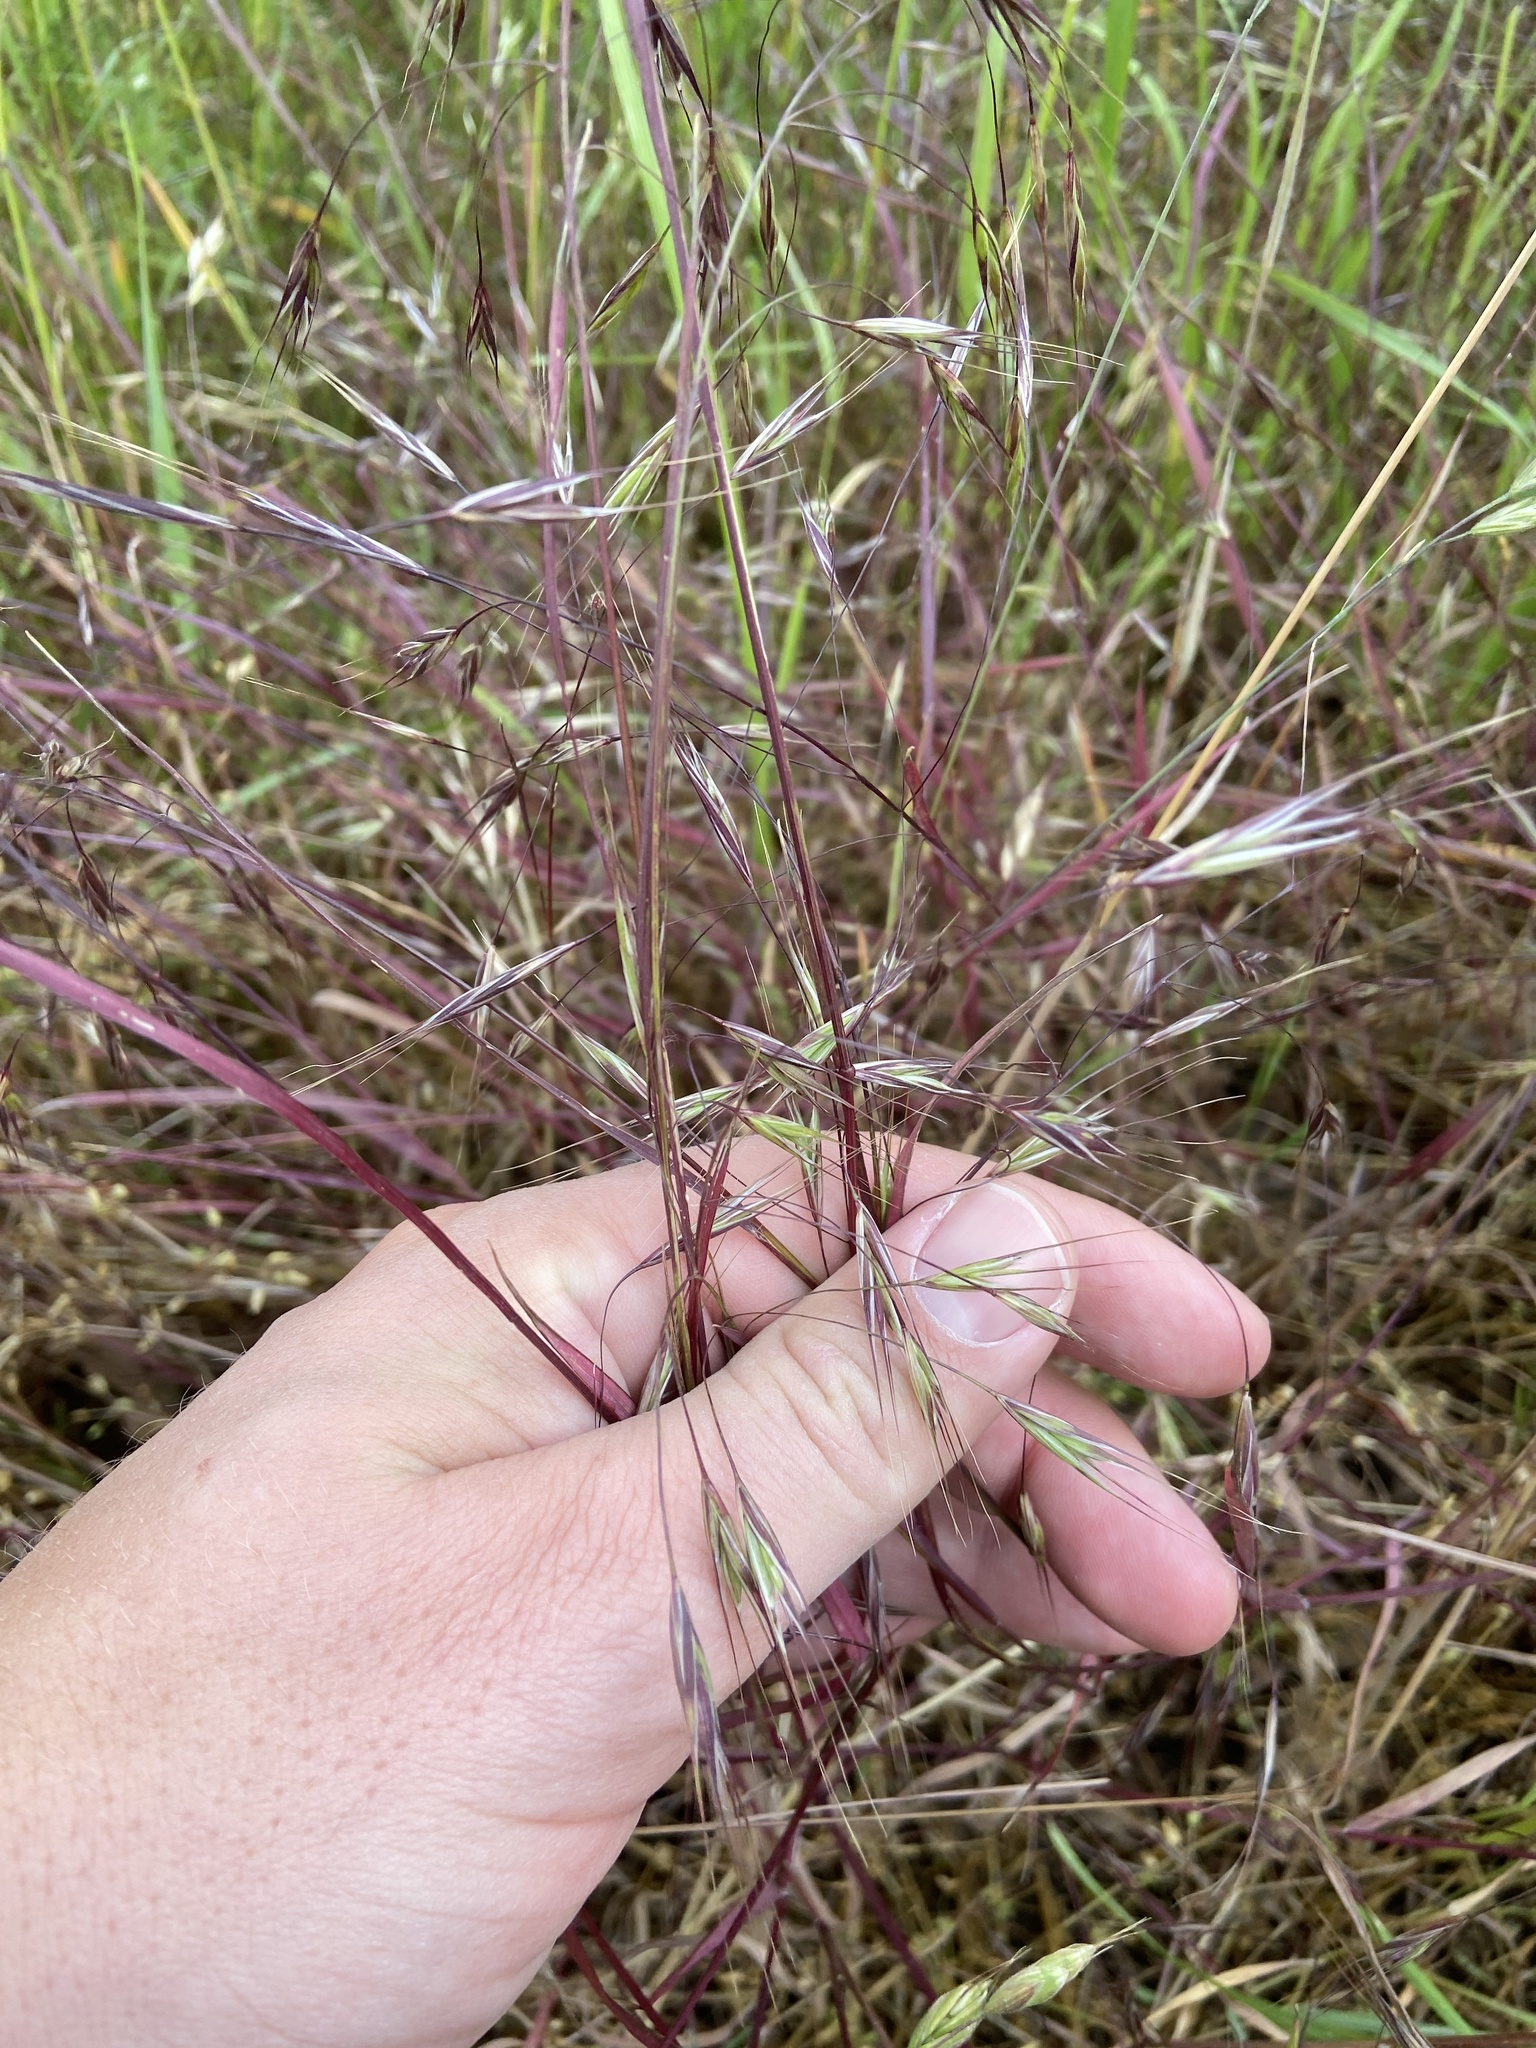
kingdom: Plantae
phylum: Tracheophyta
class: Liliopsida
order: Poales
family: Poaceae
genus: Bromus
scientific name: Bromus sterilis
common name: Poverty brome
